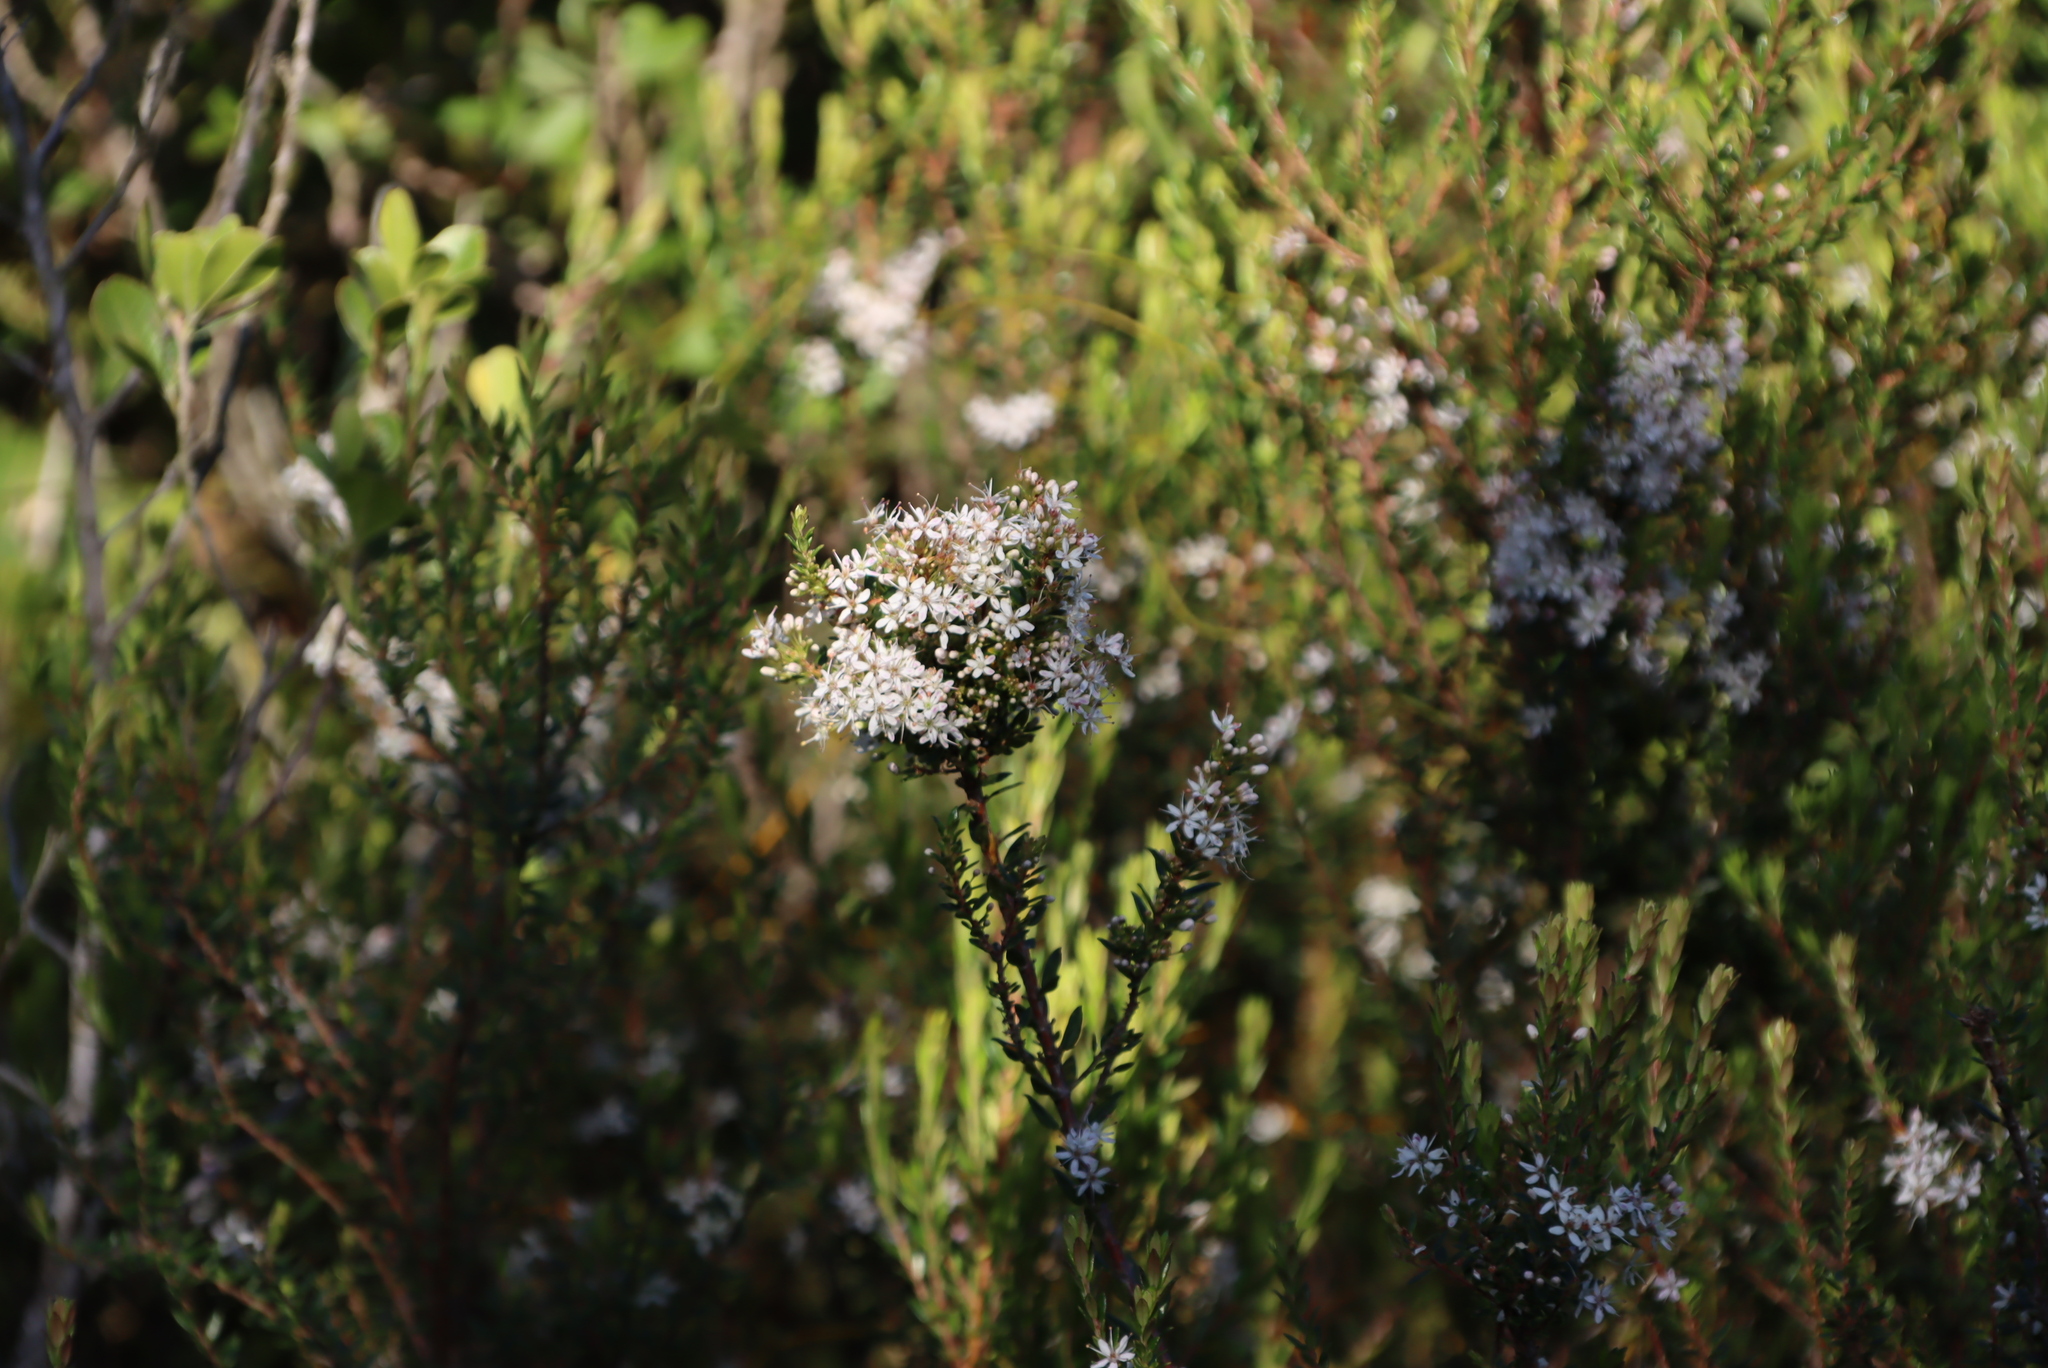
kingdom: Plantae
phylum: Tracheophyta
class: Magnoliopsida
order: Sapindales
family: Rutaceae
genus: Agathosma
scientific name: Agathosma ovata
